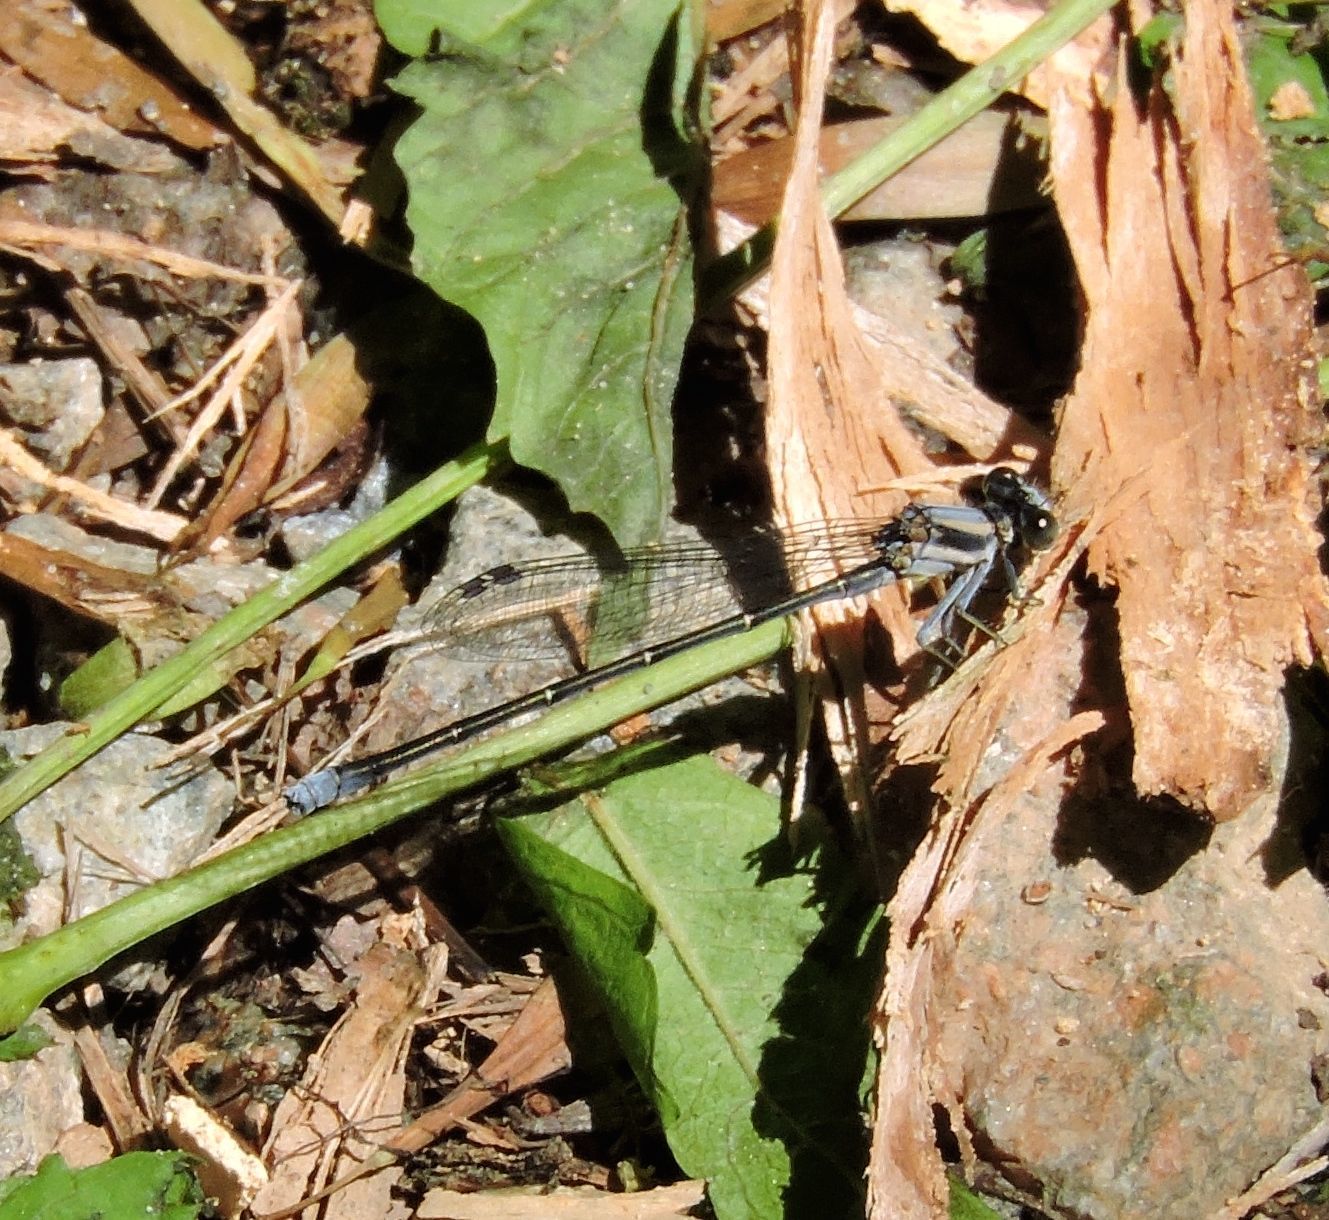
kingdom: Animalia
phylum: Arthropoda
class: Insecta
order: Odonata
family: Coenagrionidae
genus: Argia
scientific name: Argia moesta
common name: Powdered dancer
